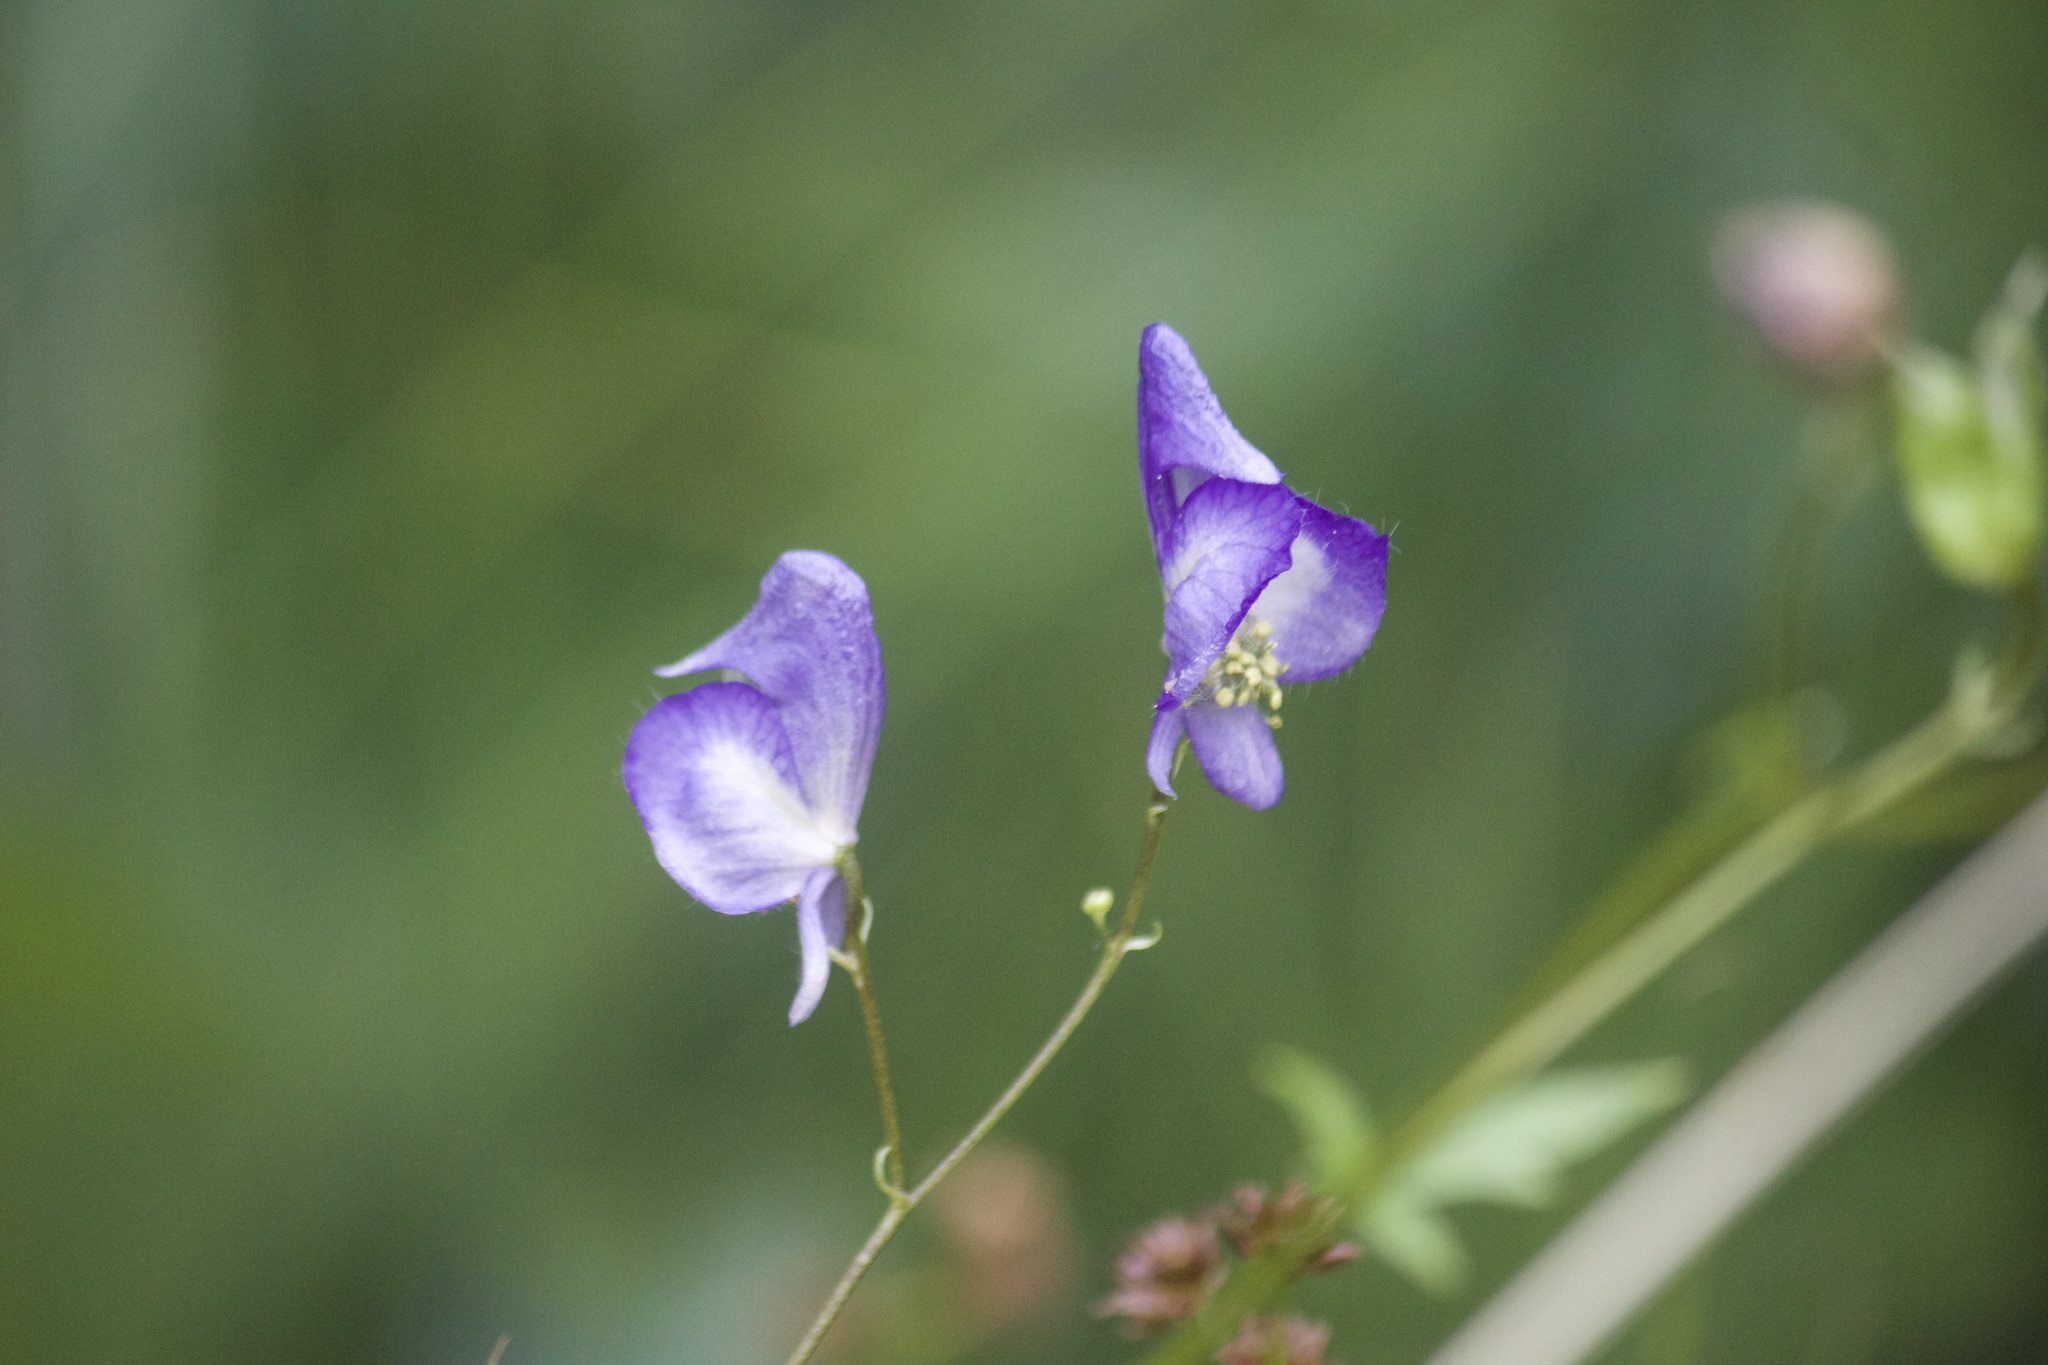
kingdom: Plantae
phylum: Tracheophyta
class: Magnoliopsida
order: Ranunculales
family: Ranunculaceae
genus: Aconitum
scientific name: Aconitum columbianum
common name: Columbia aconite
